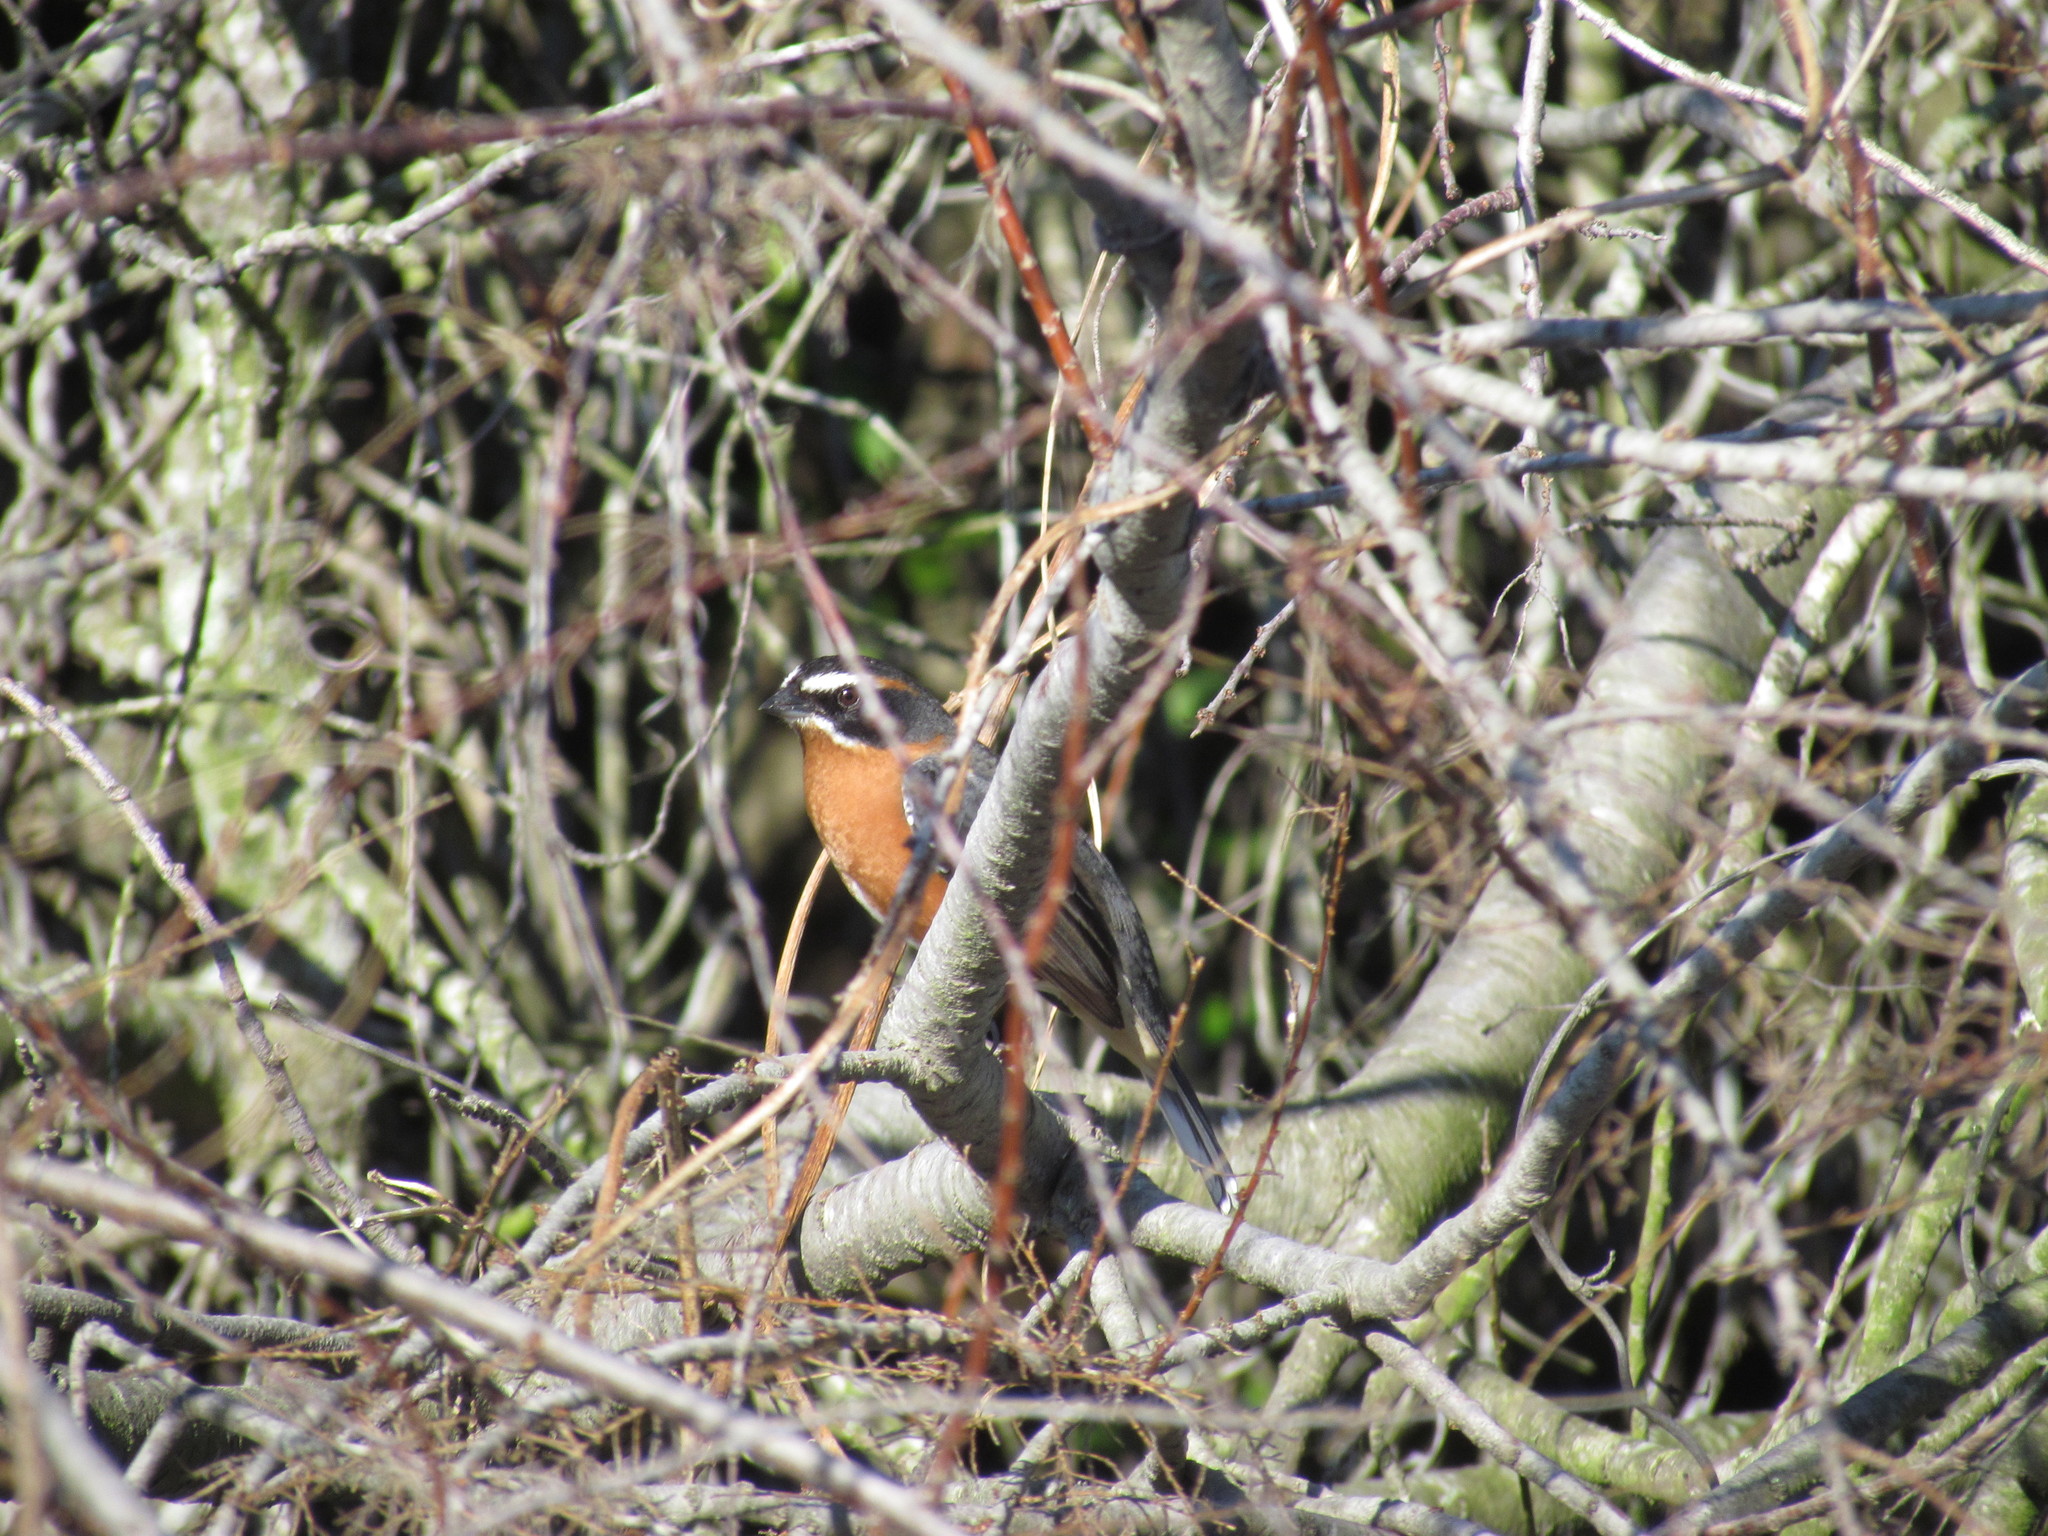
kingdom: Animalia
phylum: Chordata
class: Aves
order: Passeriformes
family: Thraupidae
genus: Poospiza
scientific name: Poospiza nigrorufa
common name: Black-and-rufous warbling finch
